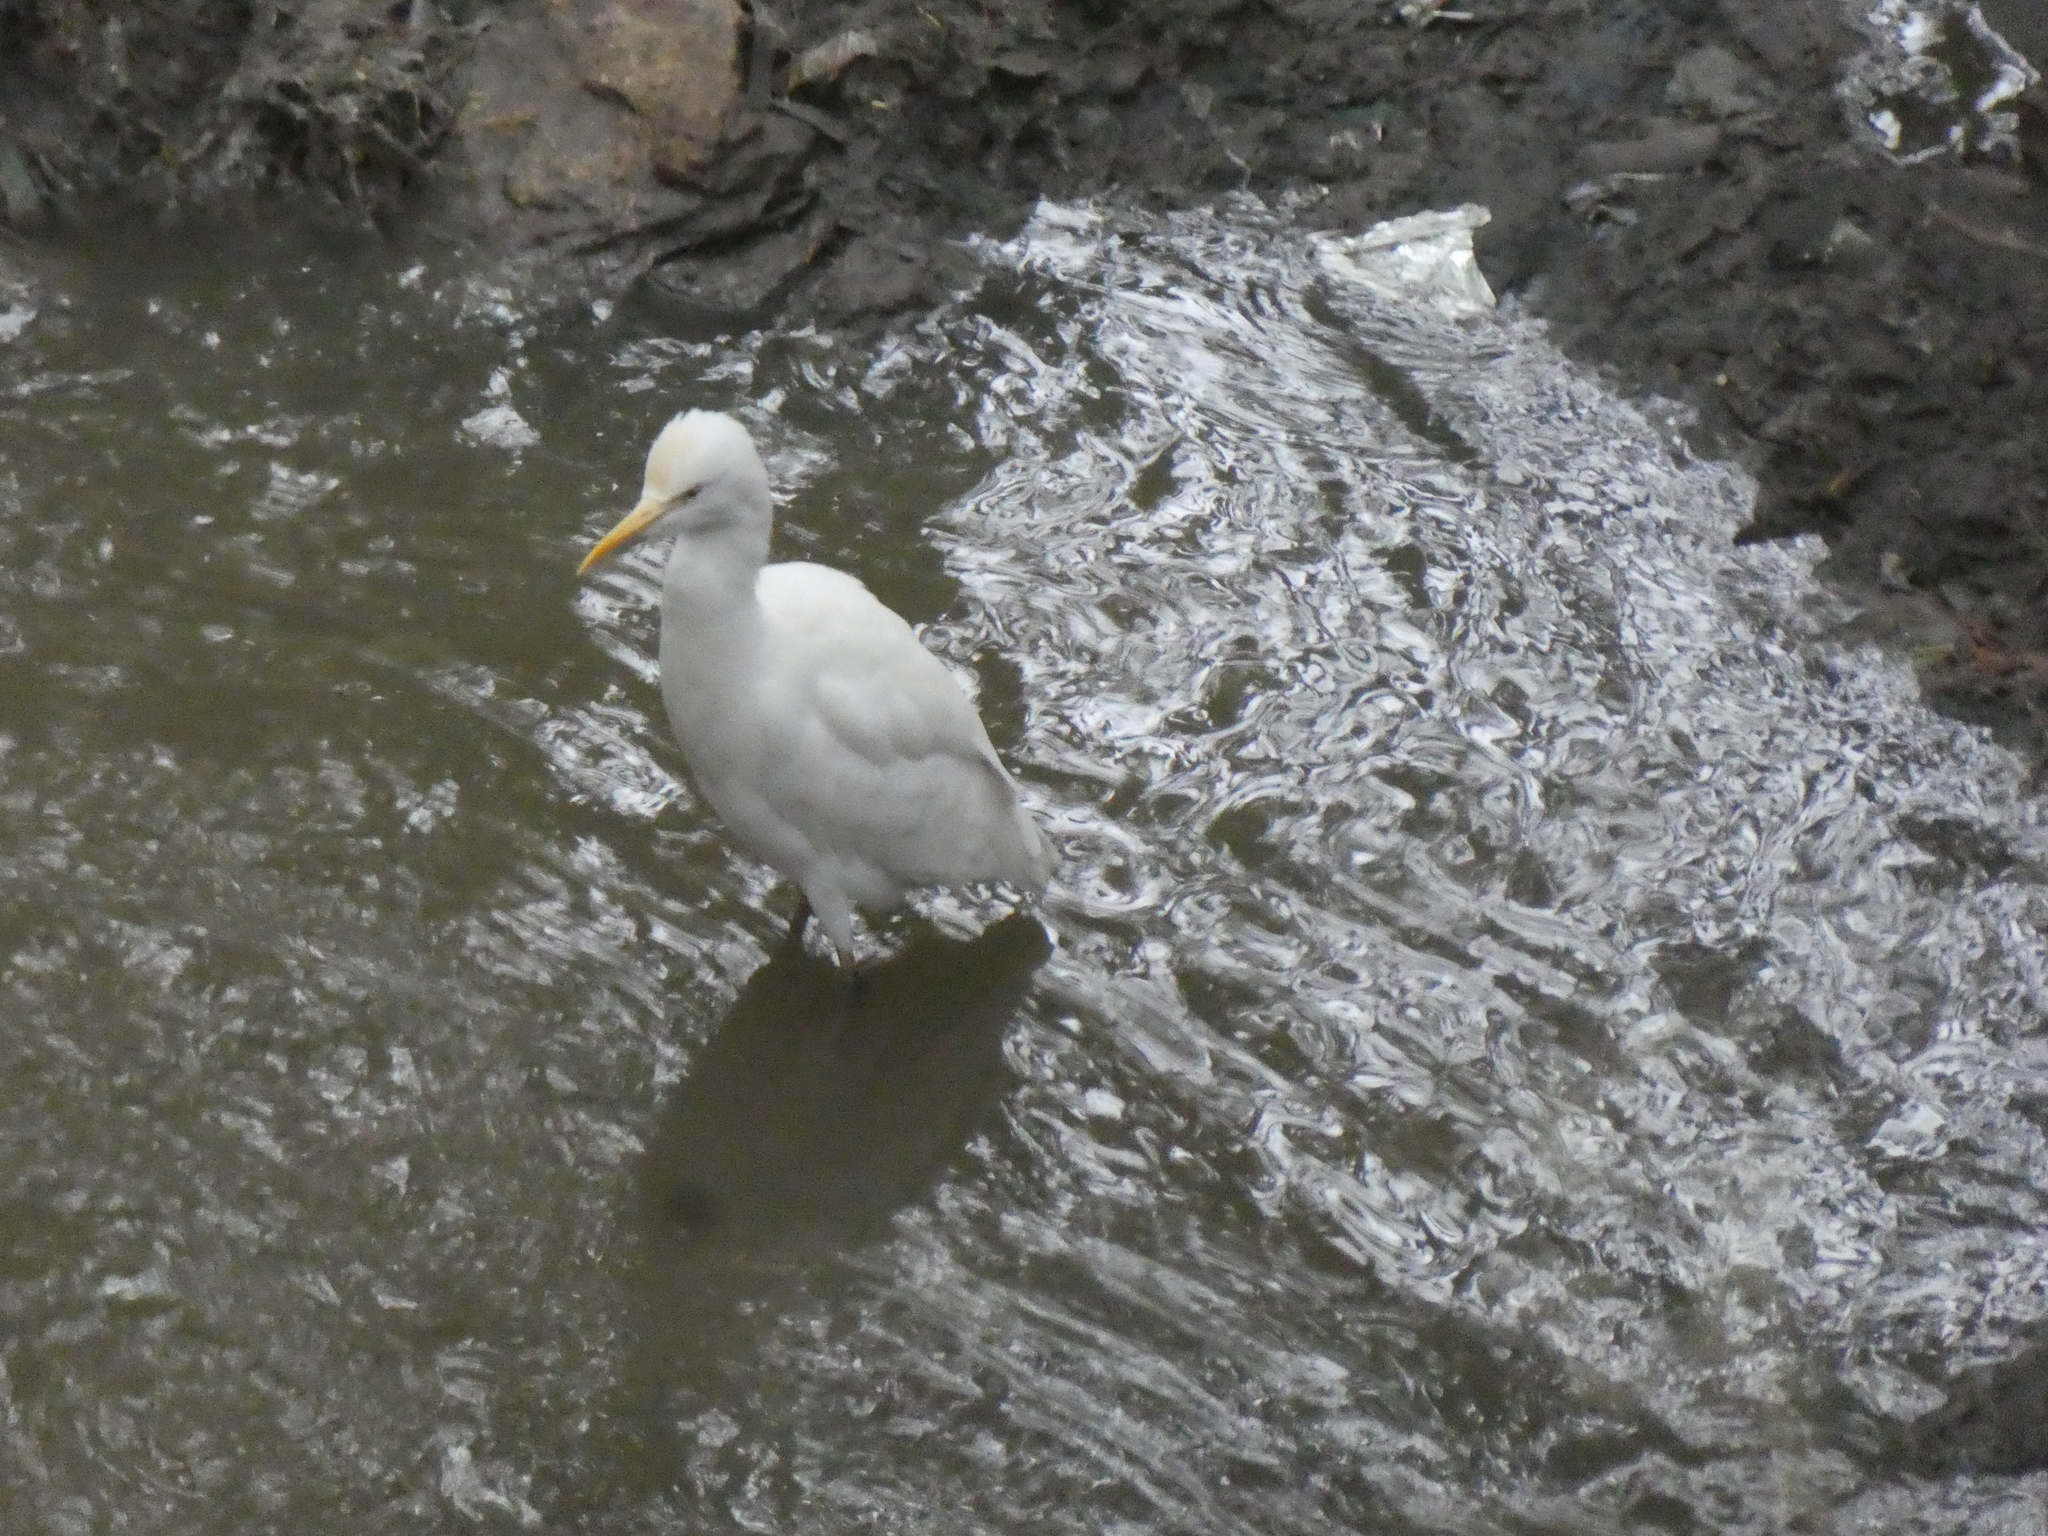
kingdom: Animalia
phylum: Chordata
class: Aves
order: Pelecaniformes
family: Ardeidae
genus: Bubulcus
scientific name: Bubulcus coromandus
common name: Eastern cattle egret
